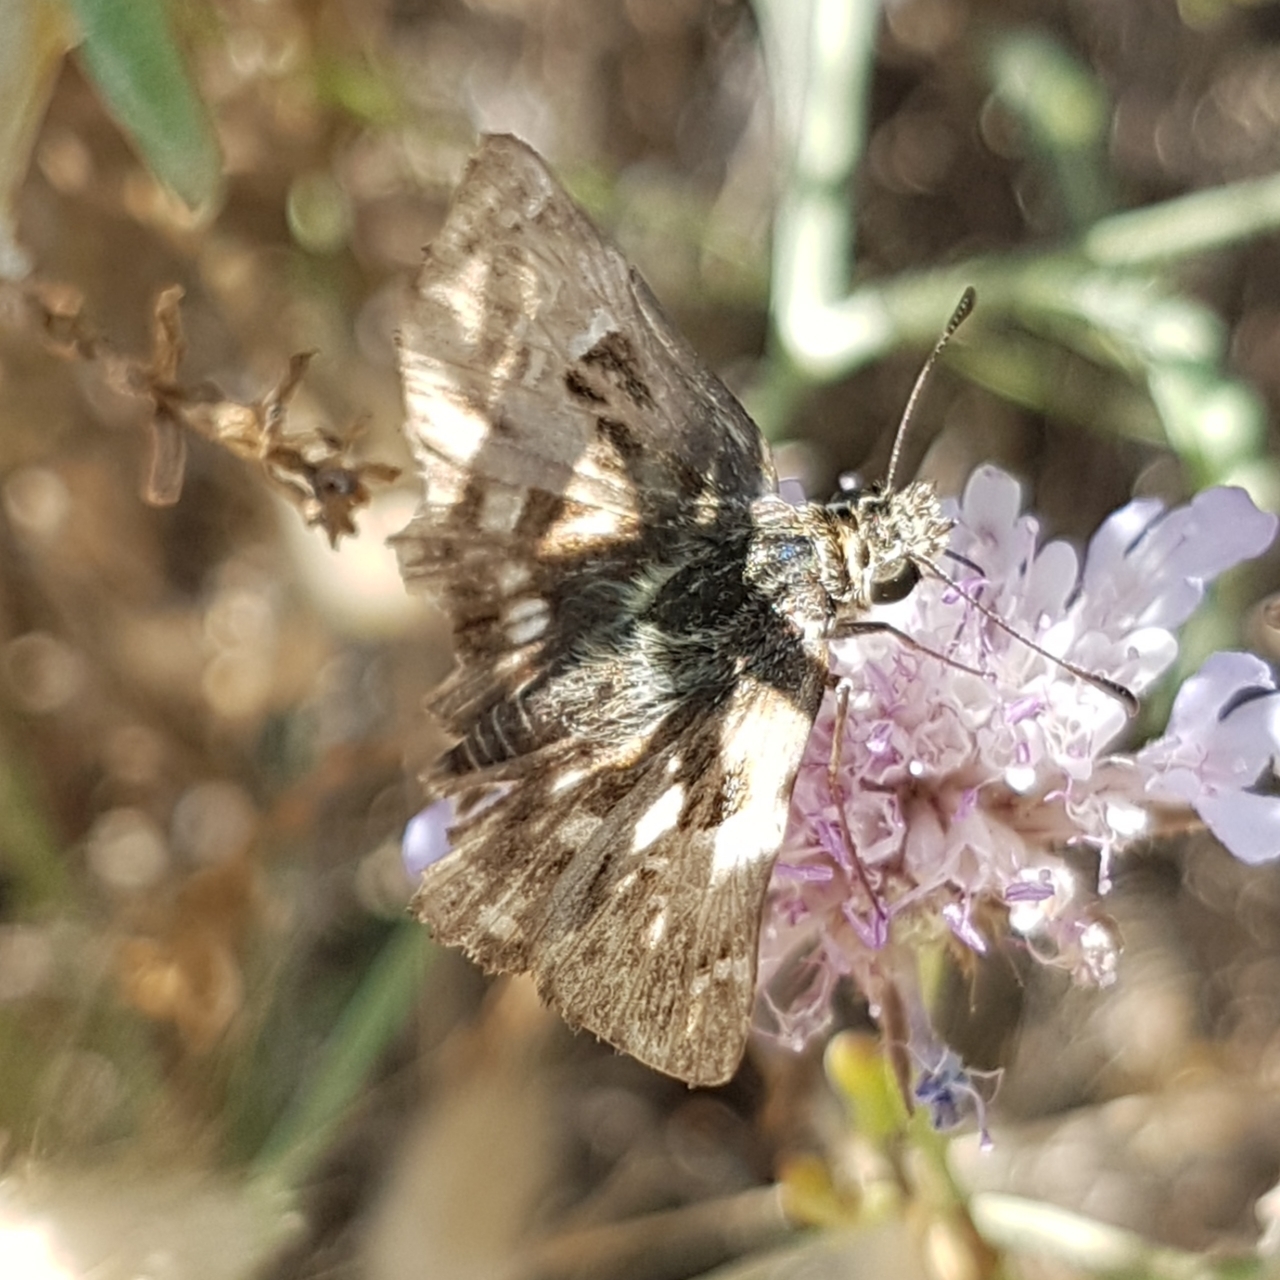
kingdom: Animalia
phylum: Arthropoda
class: Insecta
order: Lepidoptera
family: Hesperiidae
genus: Carcharodus
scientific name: Carcharodus alceae
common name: Mallow skipper
